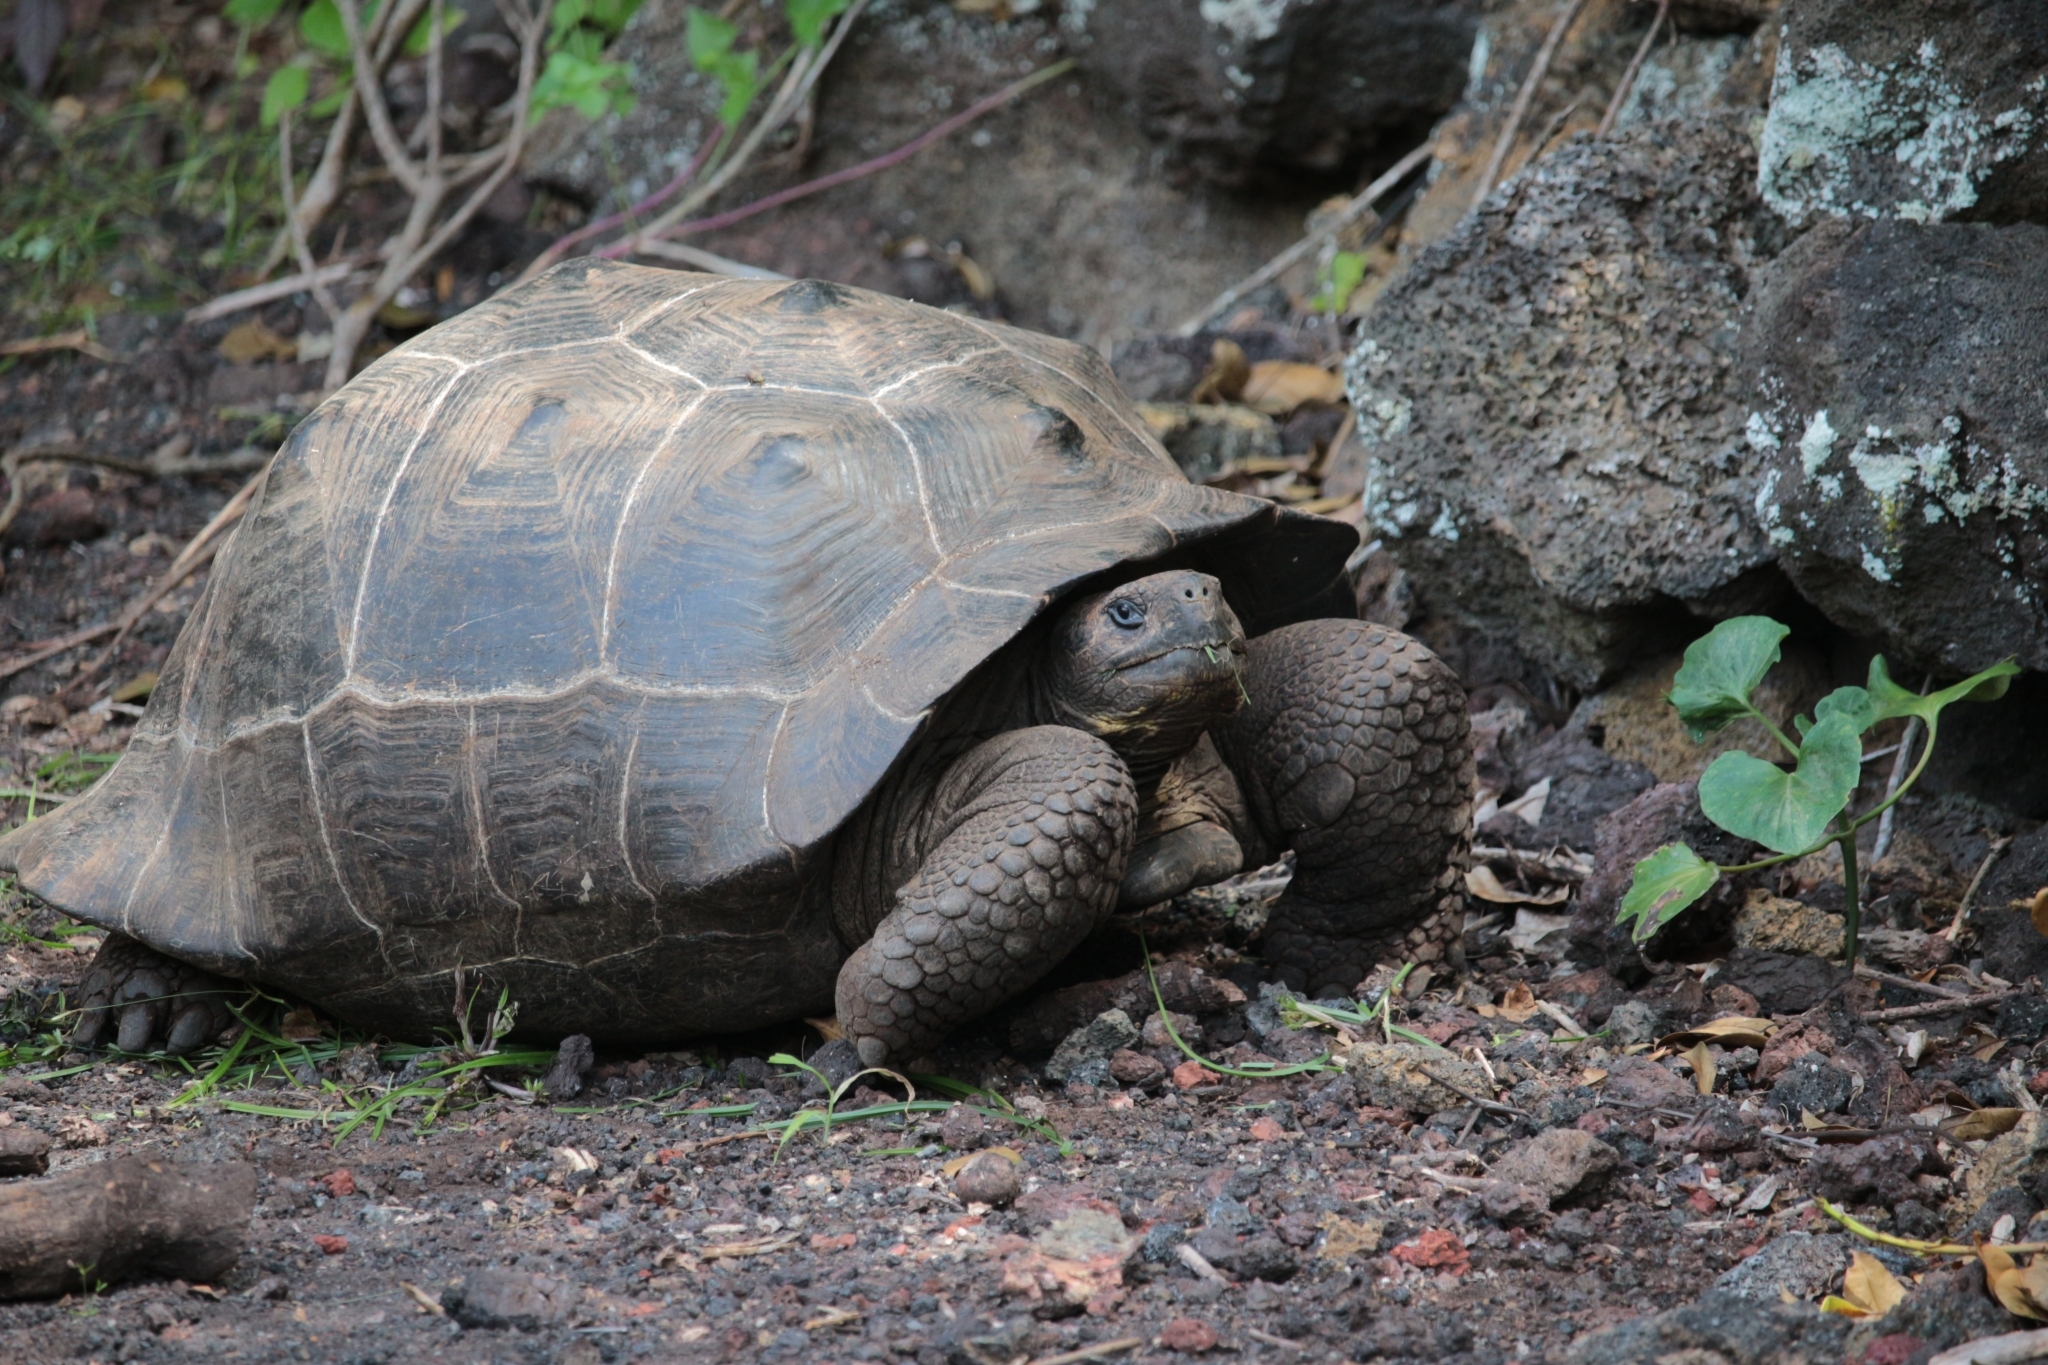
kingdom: Animalia
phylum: Chordata
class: Testudines
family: Testudinidae
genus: Chelonoidis
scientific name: Chelonoidis guntheri
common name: Sierra negra giant tortoise
